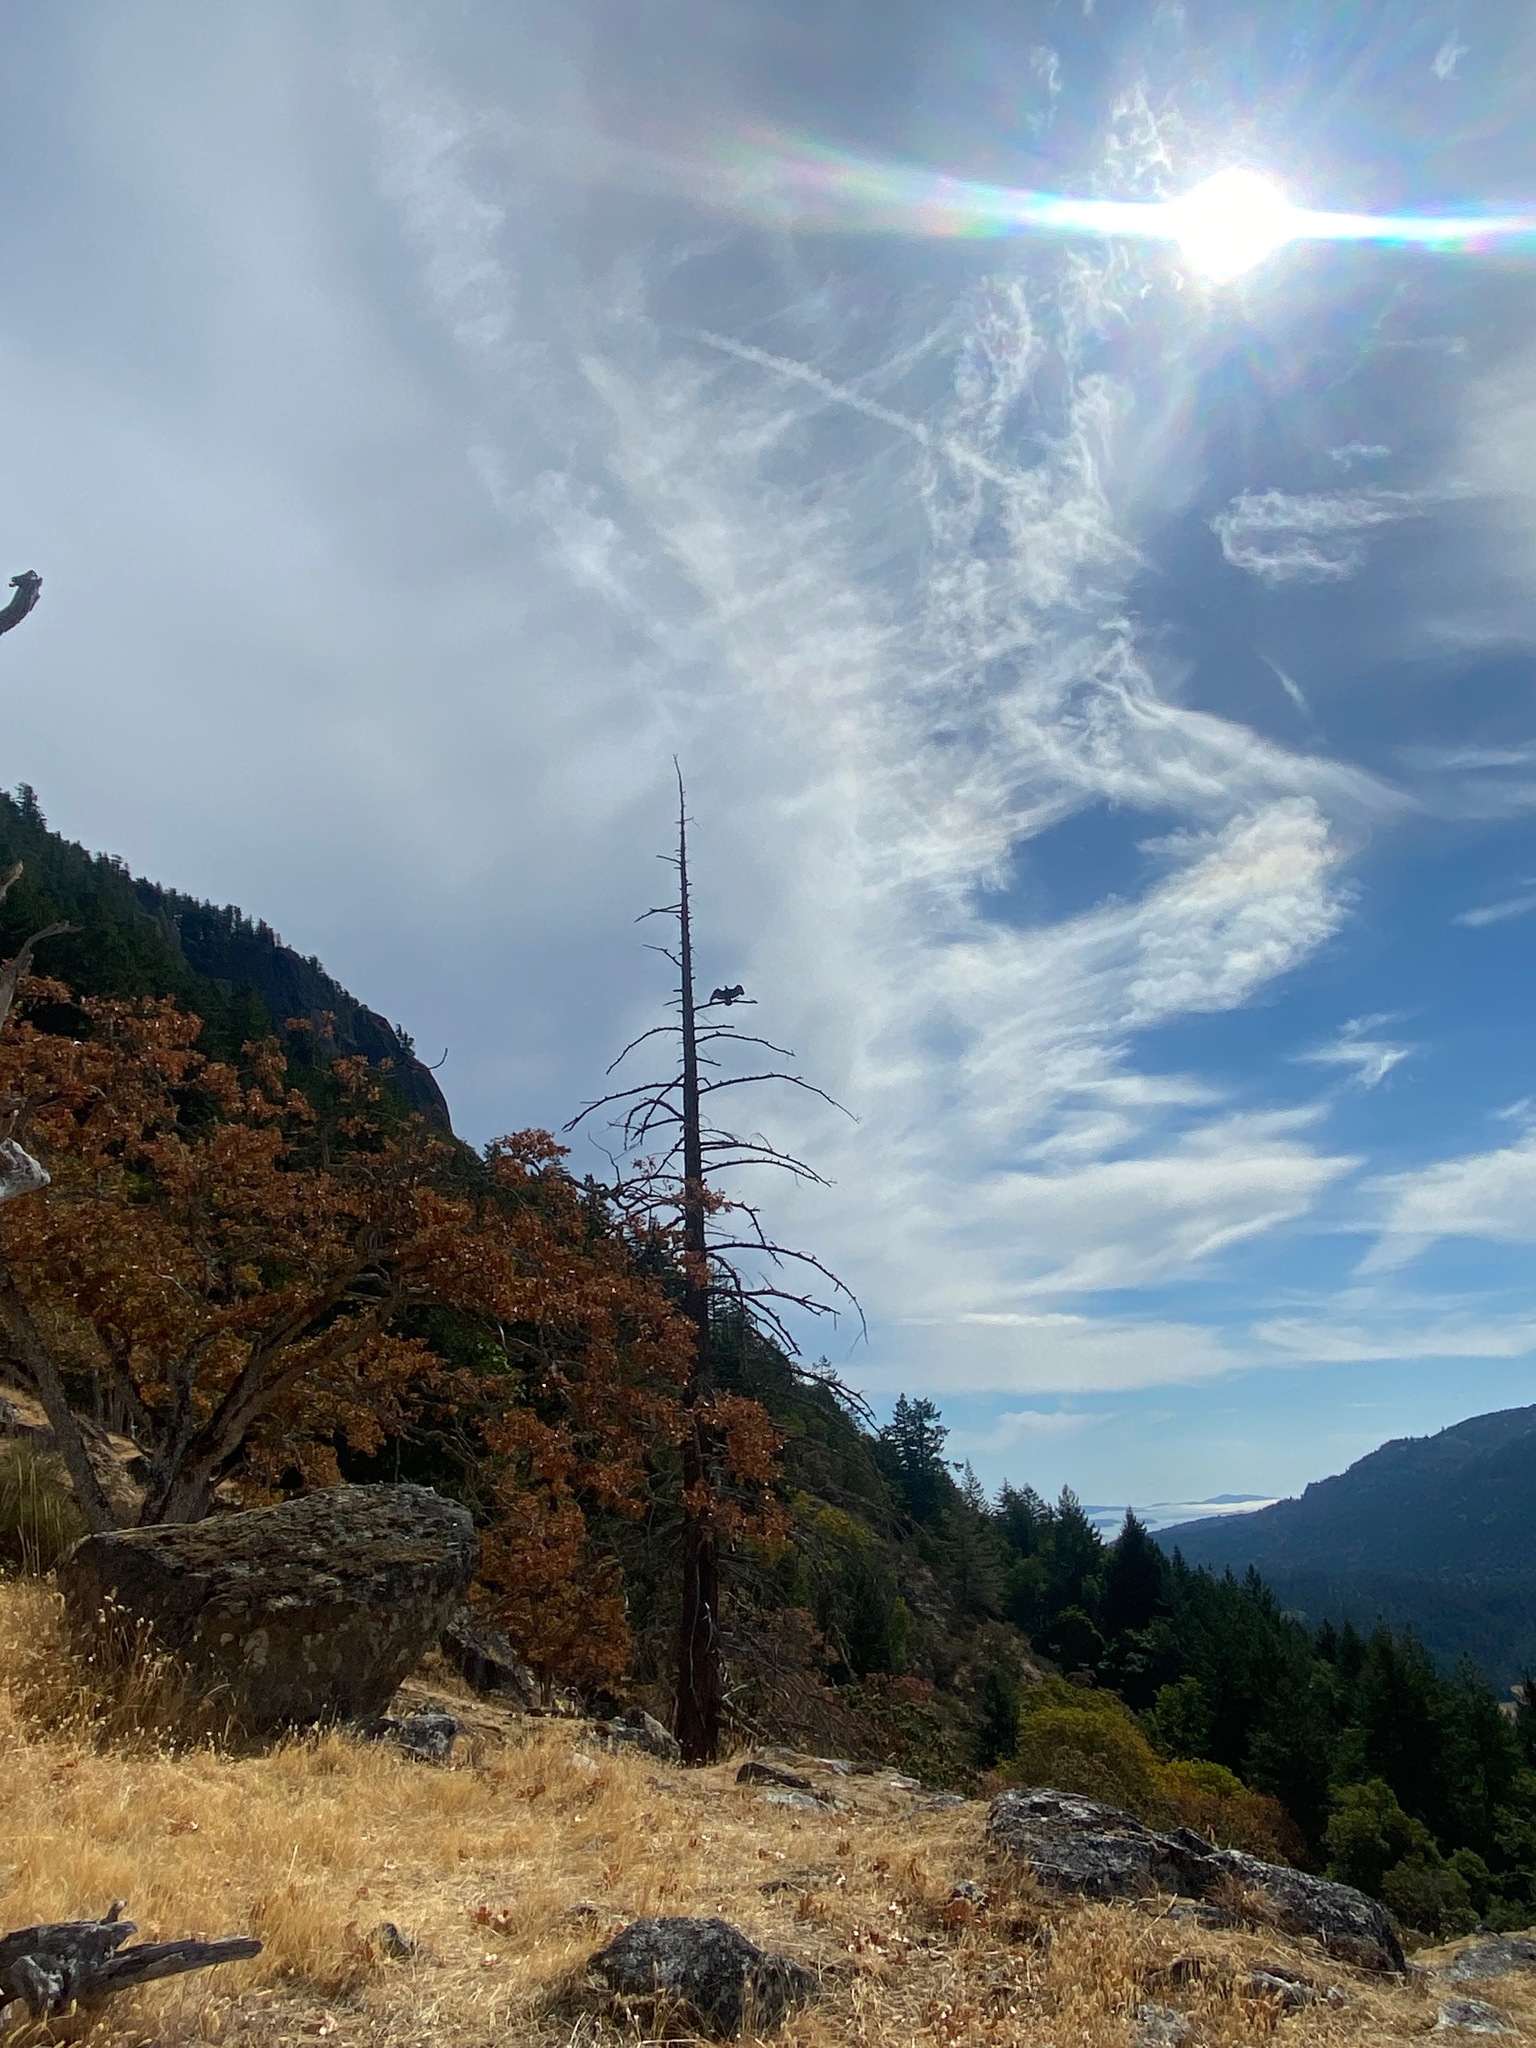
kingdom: Animalia
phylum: Chordata
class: Aves
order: Accipitriformes
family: Cathartidae
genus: Cathartes
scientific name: Cathartes aura
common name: Turkey vulture
